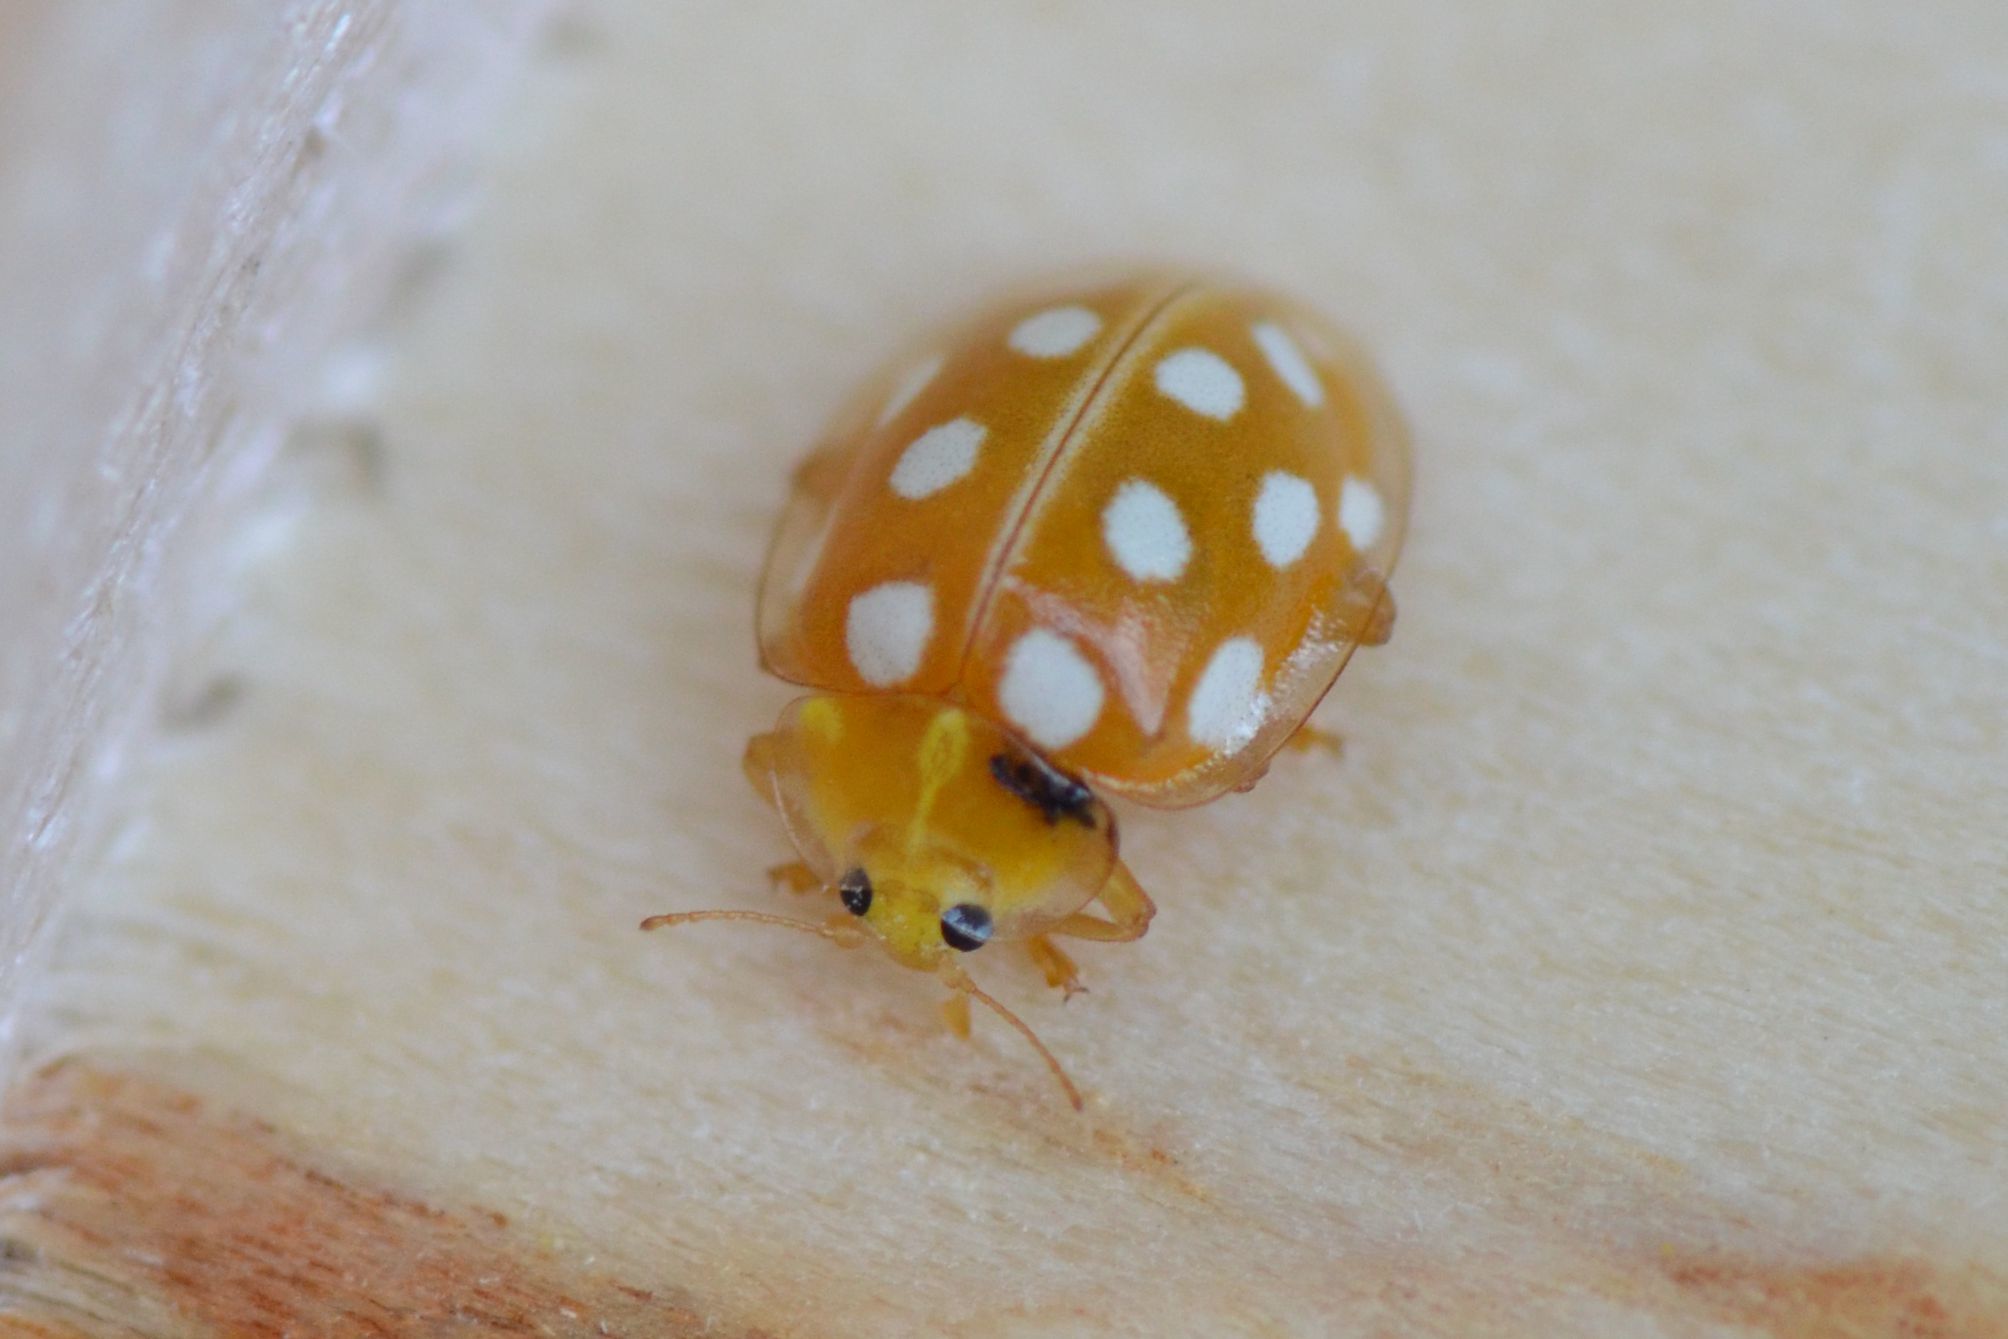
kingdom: Animalia
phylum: Arthropoda
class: Insecta
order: Coleoptera
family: Coccinellidae
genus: Halyzia
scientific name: Halyzia sedecimguttata
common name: Orange ladybird
